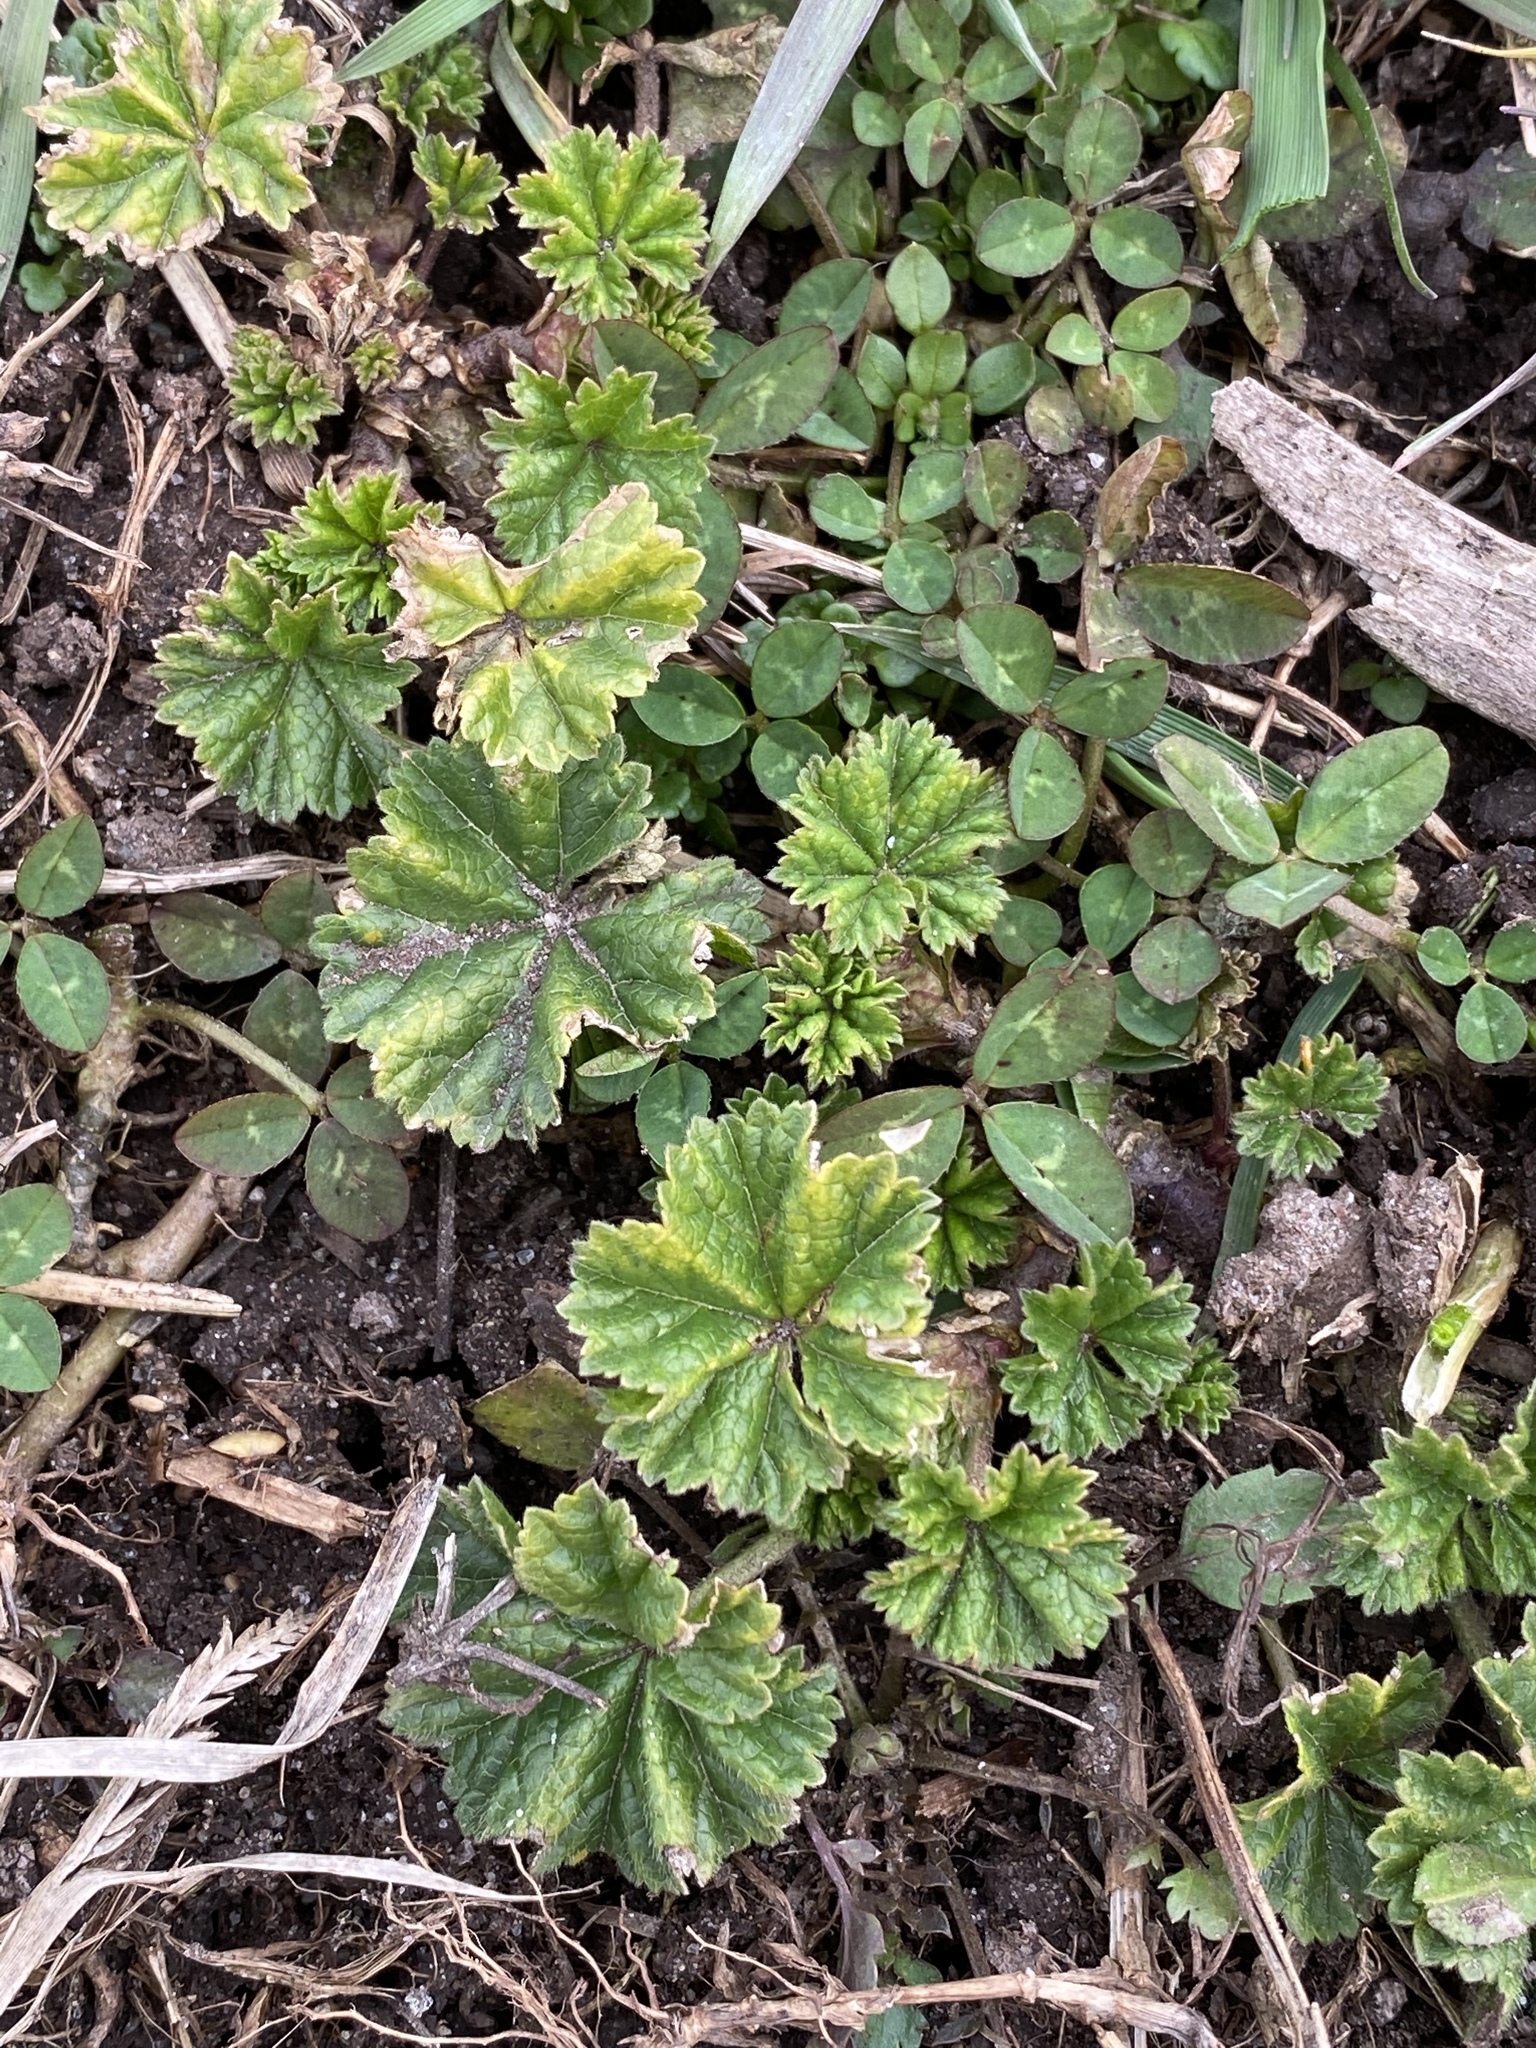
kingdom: Plantae
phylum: Tracheophyta
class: Magnoliopsida
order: Malvales
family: Malvaceae
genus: Malva
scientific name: Malva neglecta
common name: Common mallow
